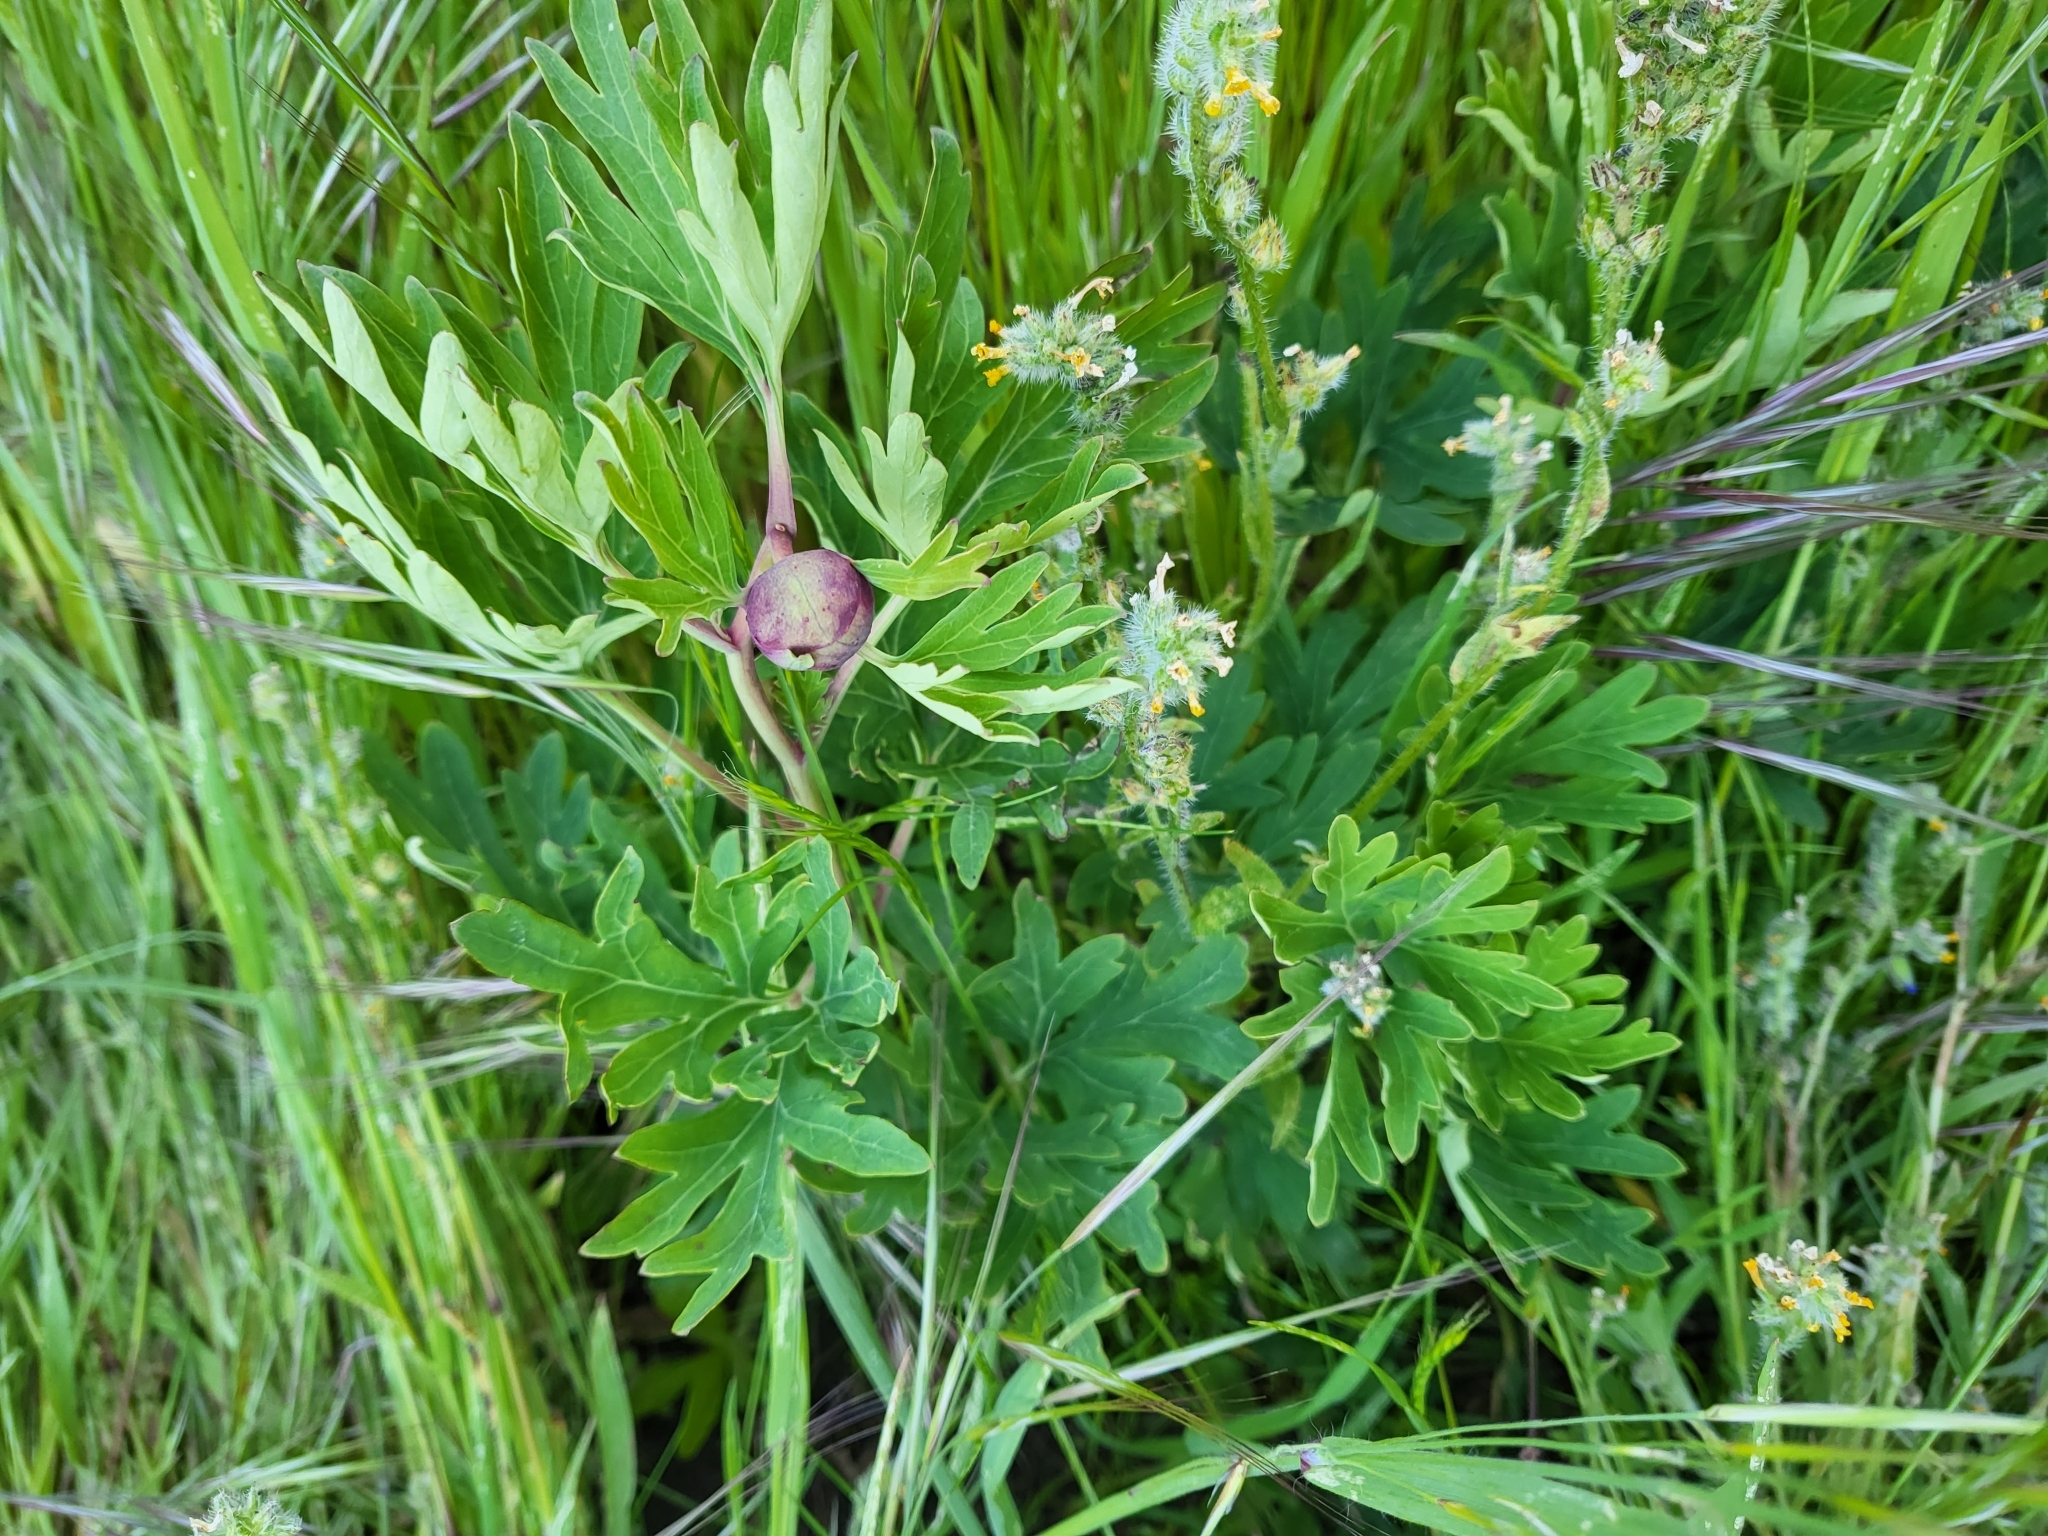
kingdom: Plantae
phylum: Tracheophyta
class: Magnoliopsida
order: Saxifragales
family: Paeoniaceae
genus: Paeonia
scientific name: Paeonia californica
